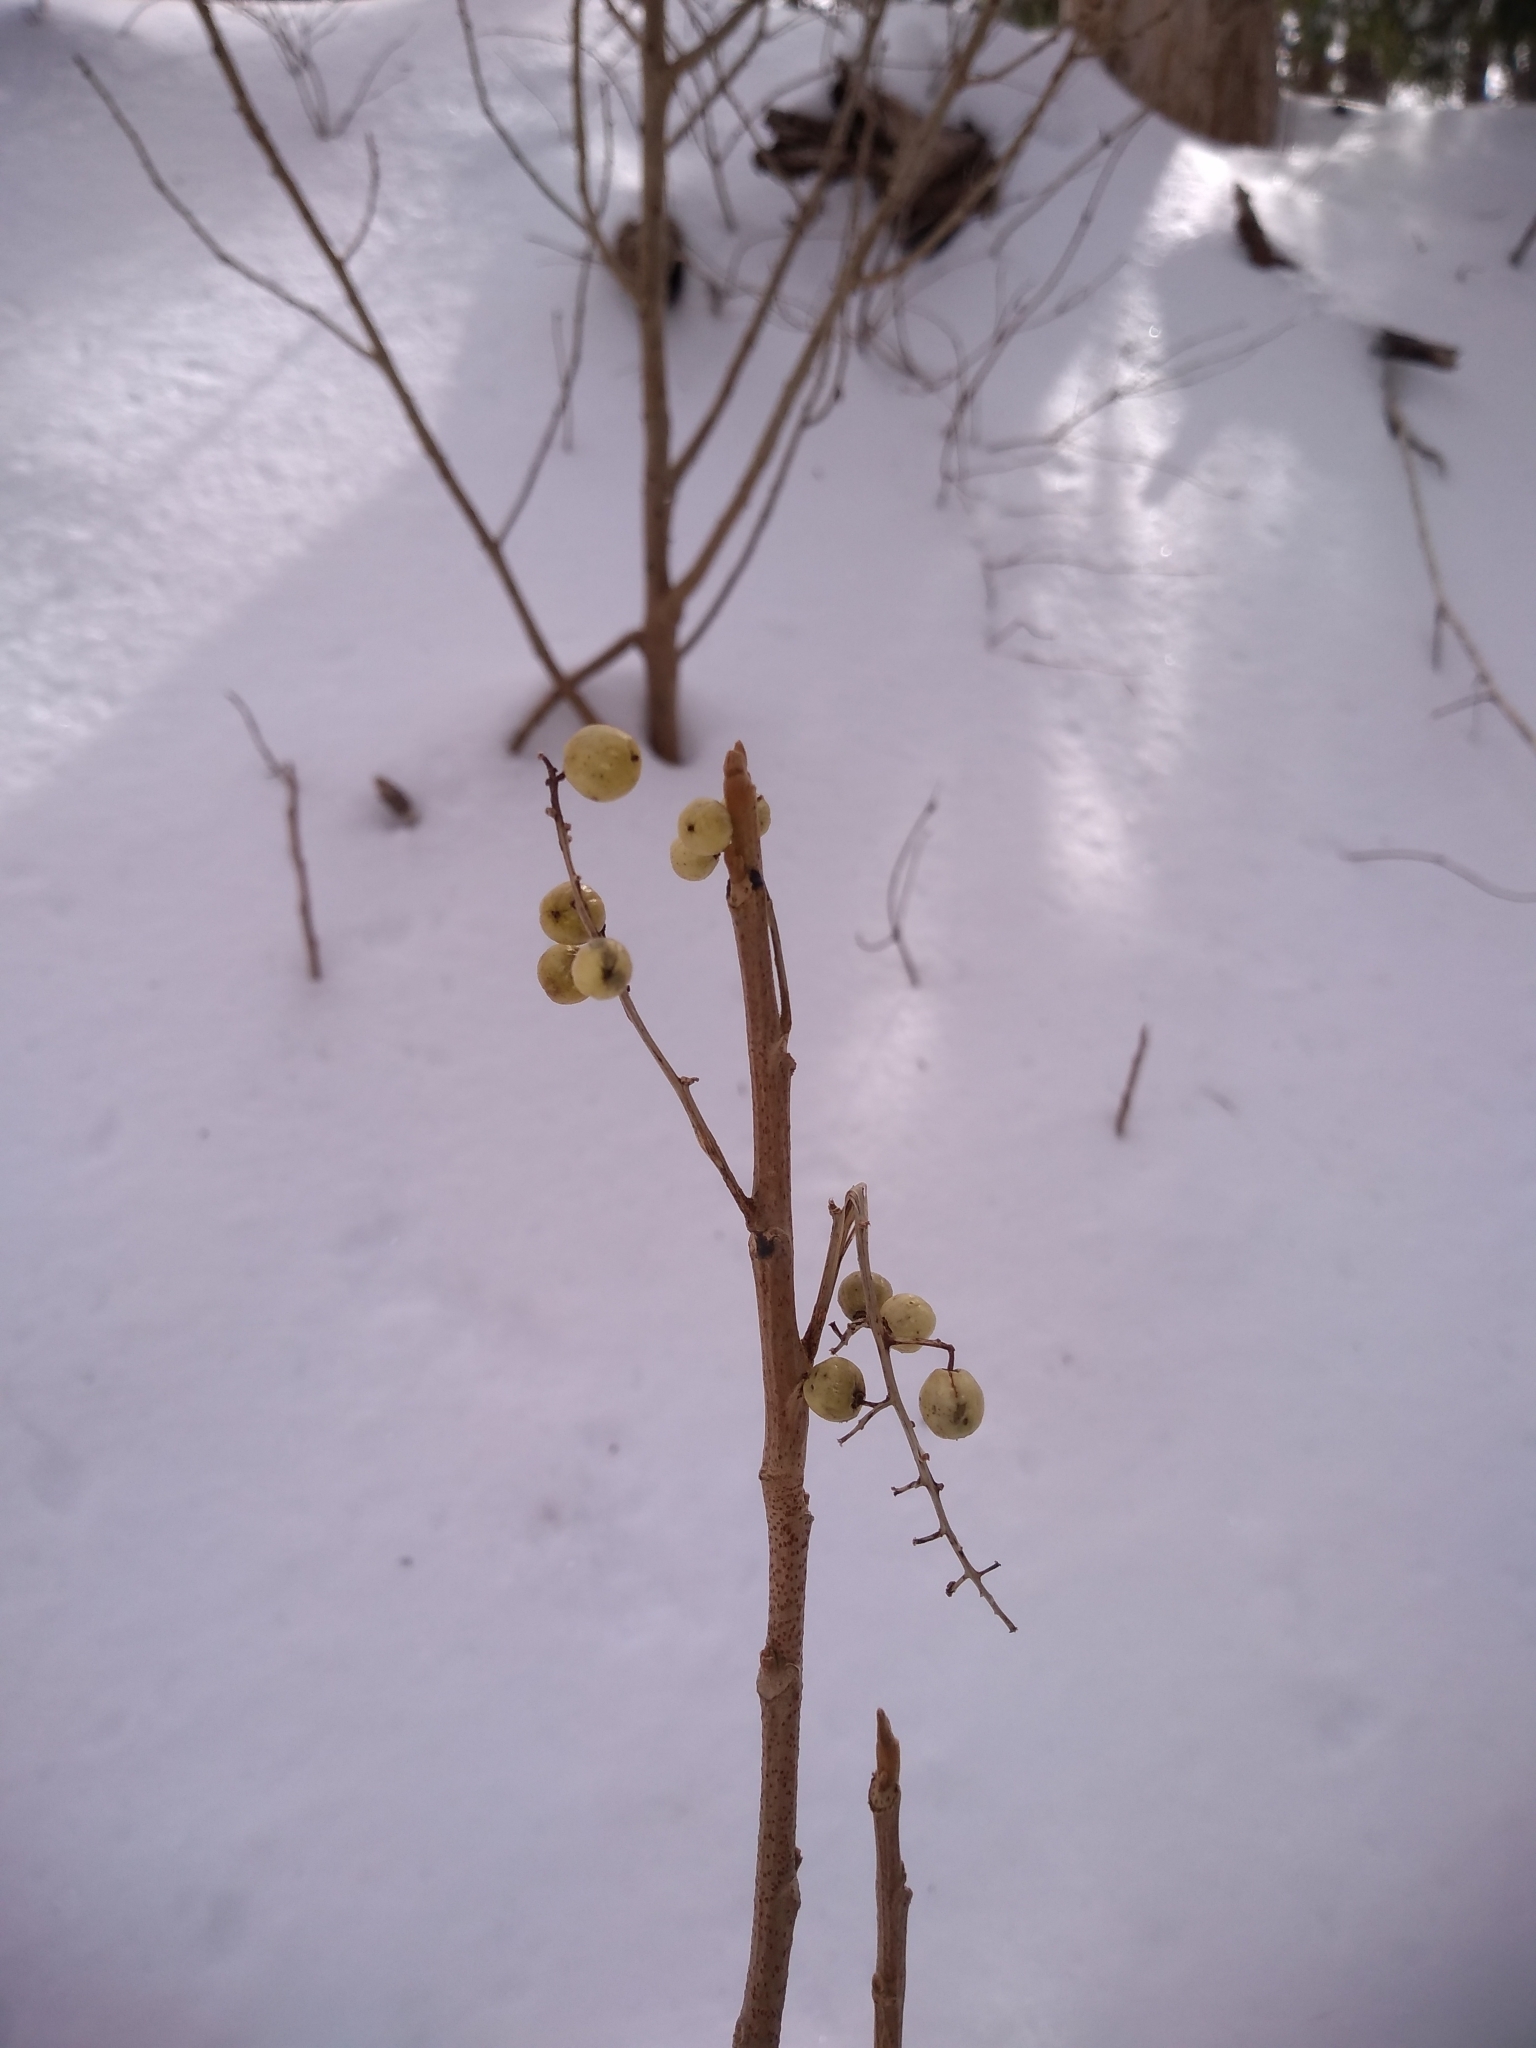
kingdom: Plantae
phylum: Tracheophyta
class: Magnoliopsida
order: Sapindales
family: Anacardiaceae
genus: Toxicodendron
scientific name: Toxicodendron rydbergii
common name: Rydberg's poison-ivy
